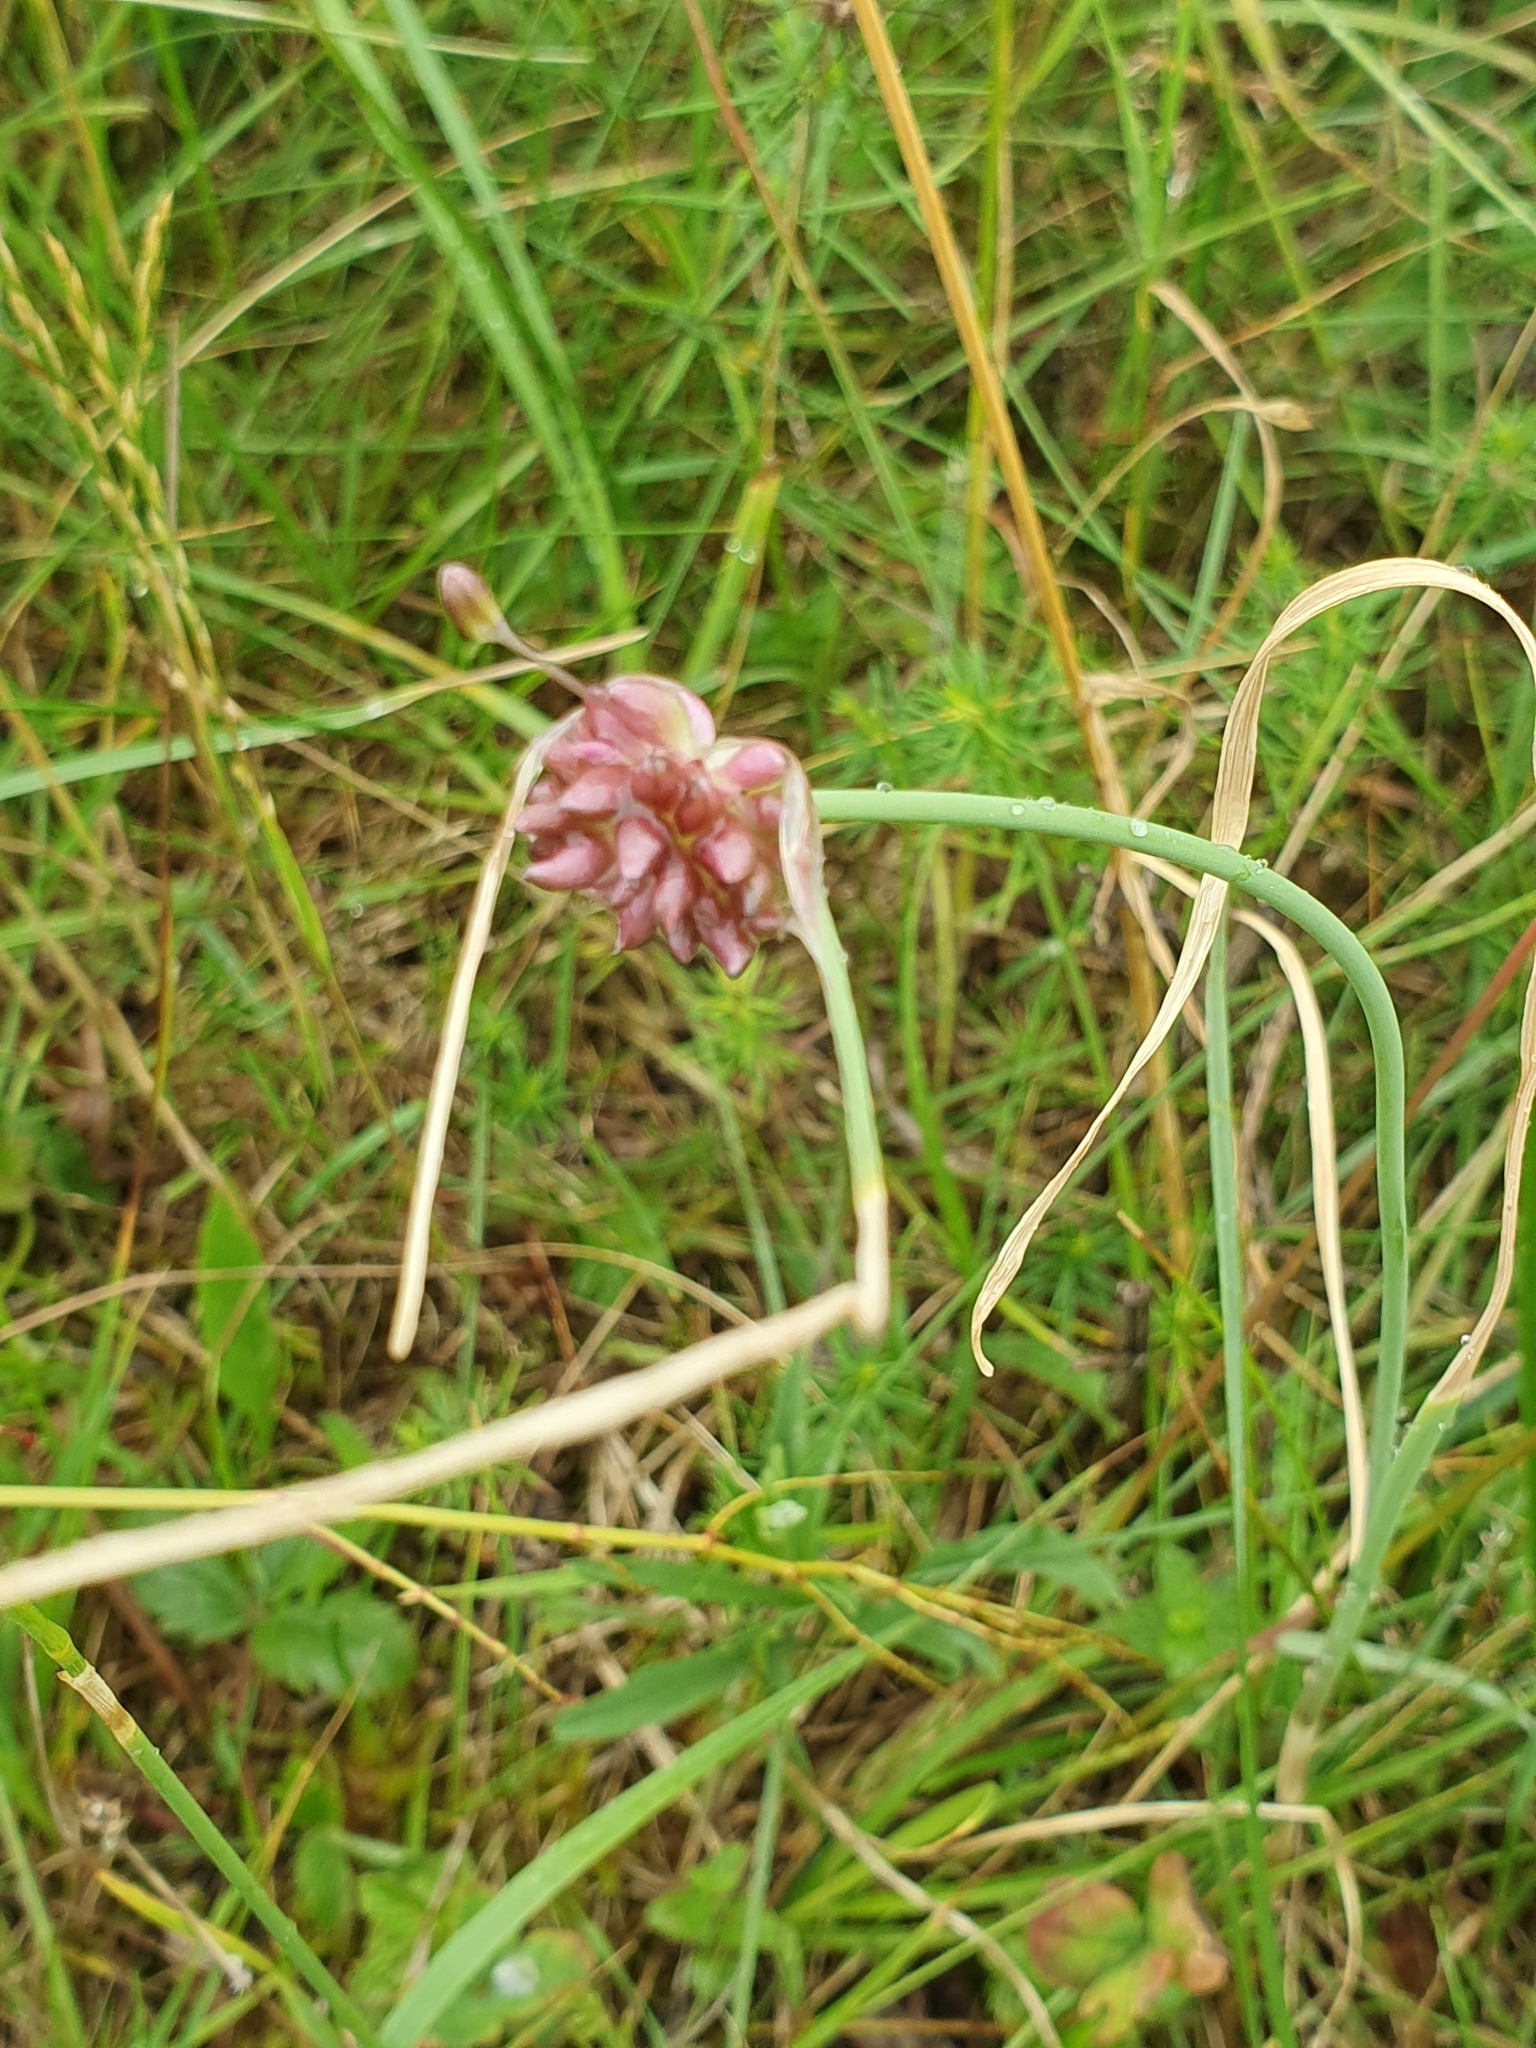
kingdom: Plantae
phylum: Tracheophyta
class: Liliopsida
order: Asparagales
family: Amaryllidaceae
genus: Allium
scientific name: Allium oleraceum
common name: Field garlic
